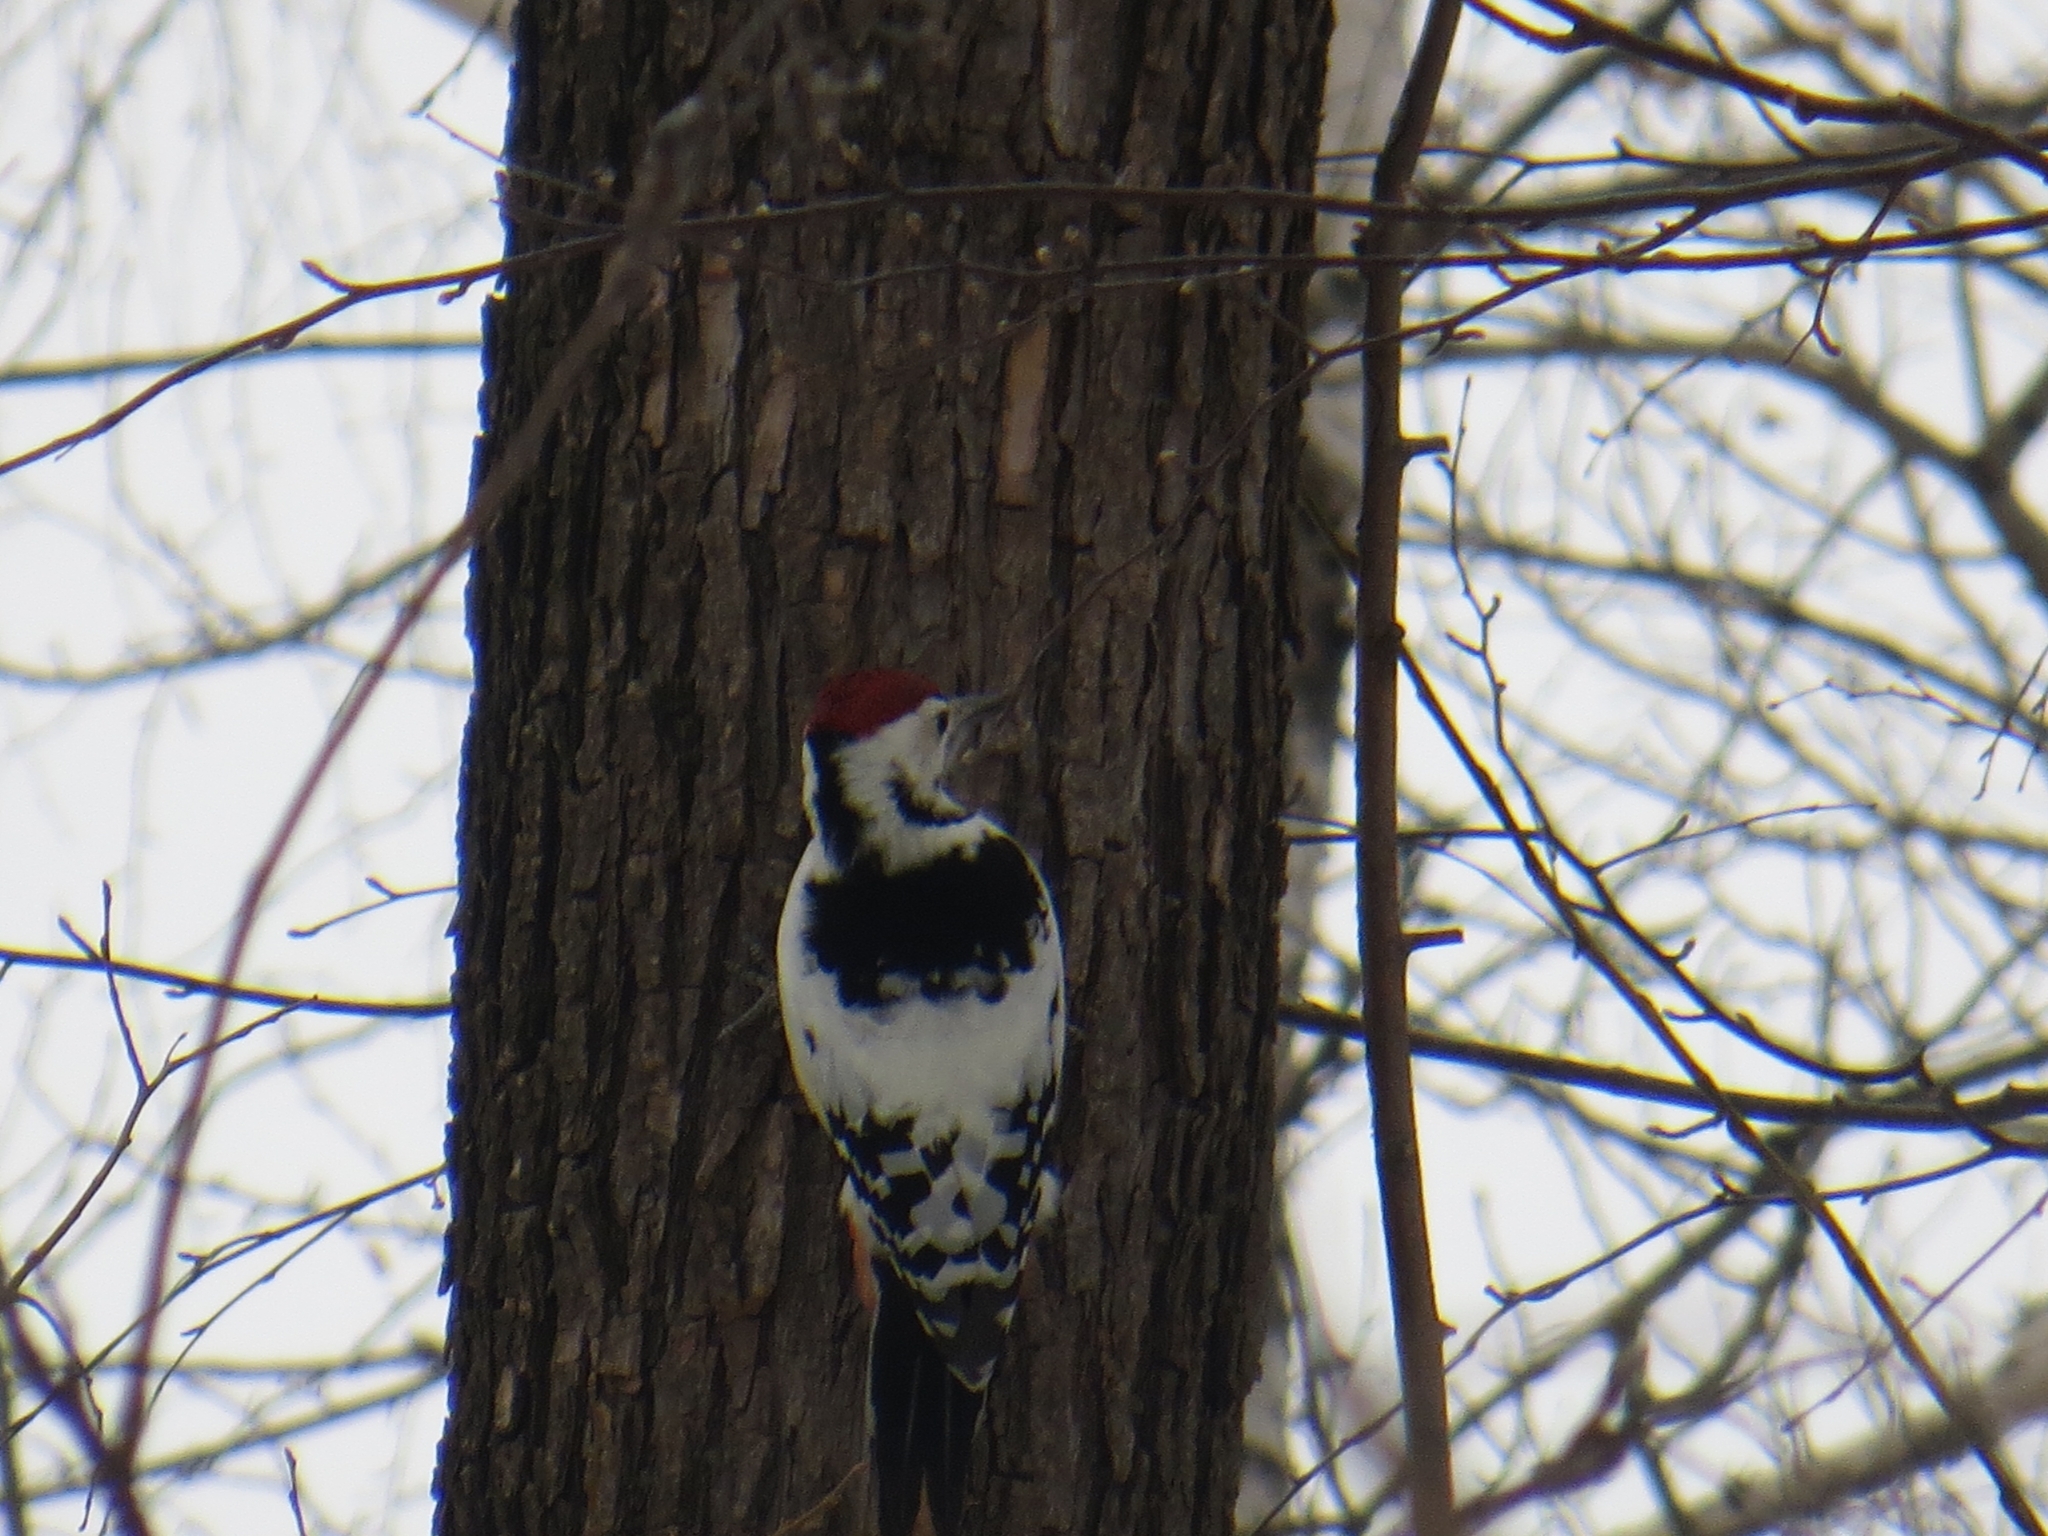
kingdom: Animalia
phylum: Chordata
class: Aves
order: Piciformes
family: Picidae
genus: Dendrocopos
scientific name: Dendrocopos leucotos
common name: White-backed woodpecker
